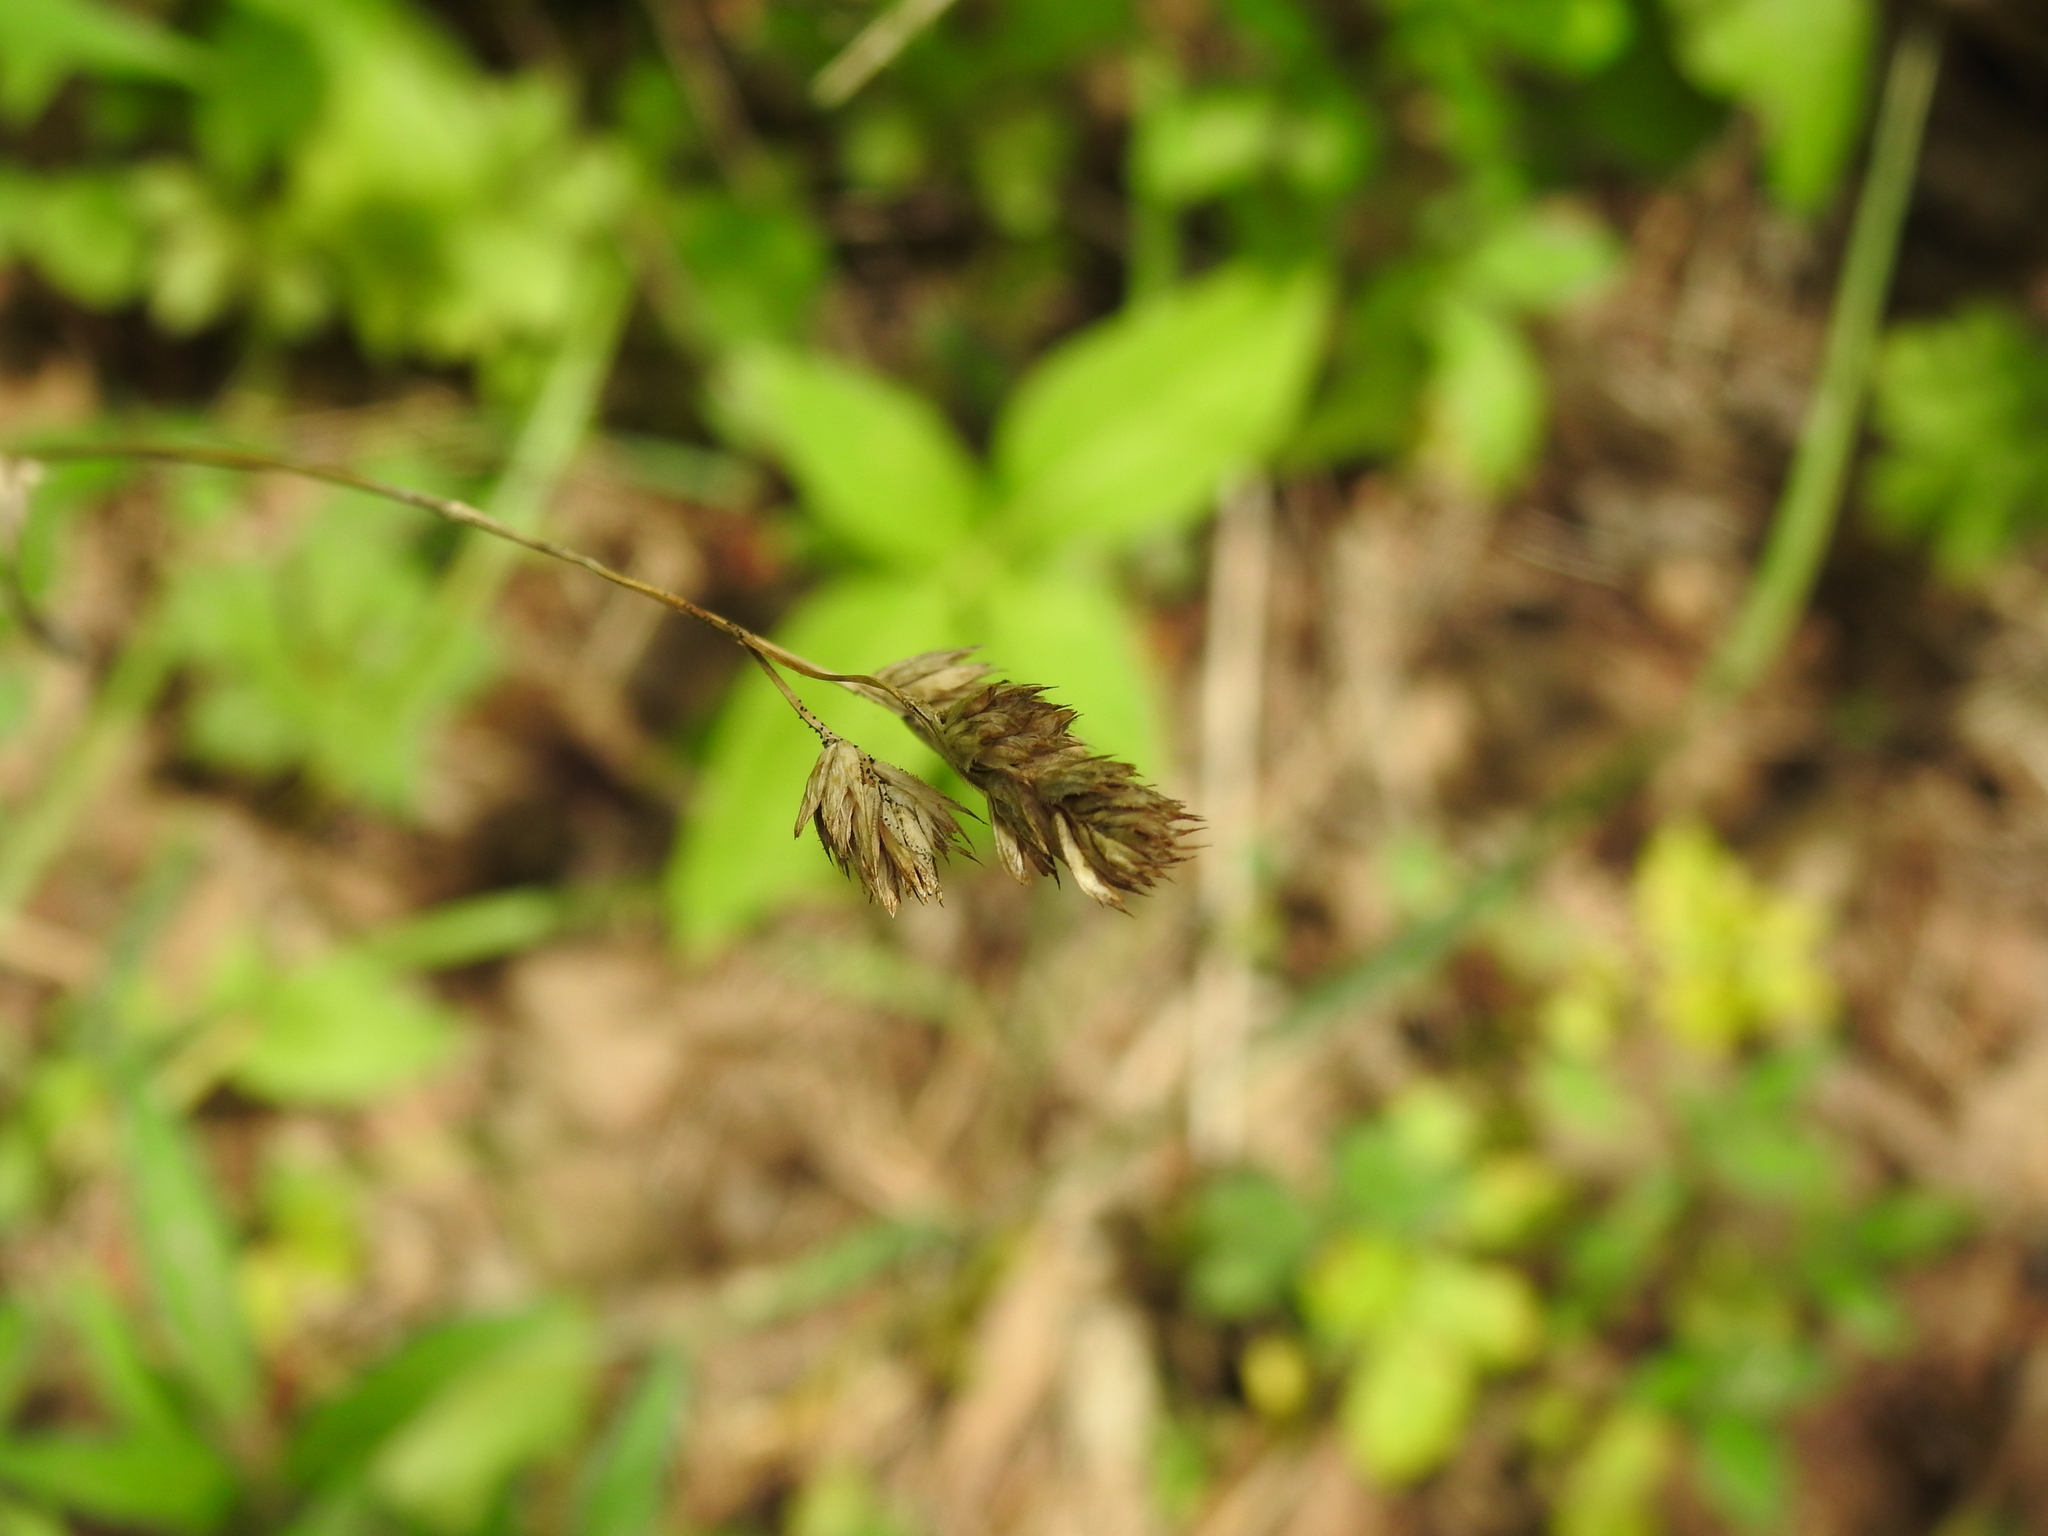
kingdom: Plantae
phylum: Tracheophyta
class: Liliopsida
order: Poales
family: Poaceae
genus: Dactylis
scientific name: Dactylis glomerata
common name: Orchardgrass
